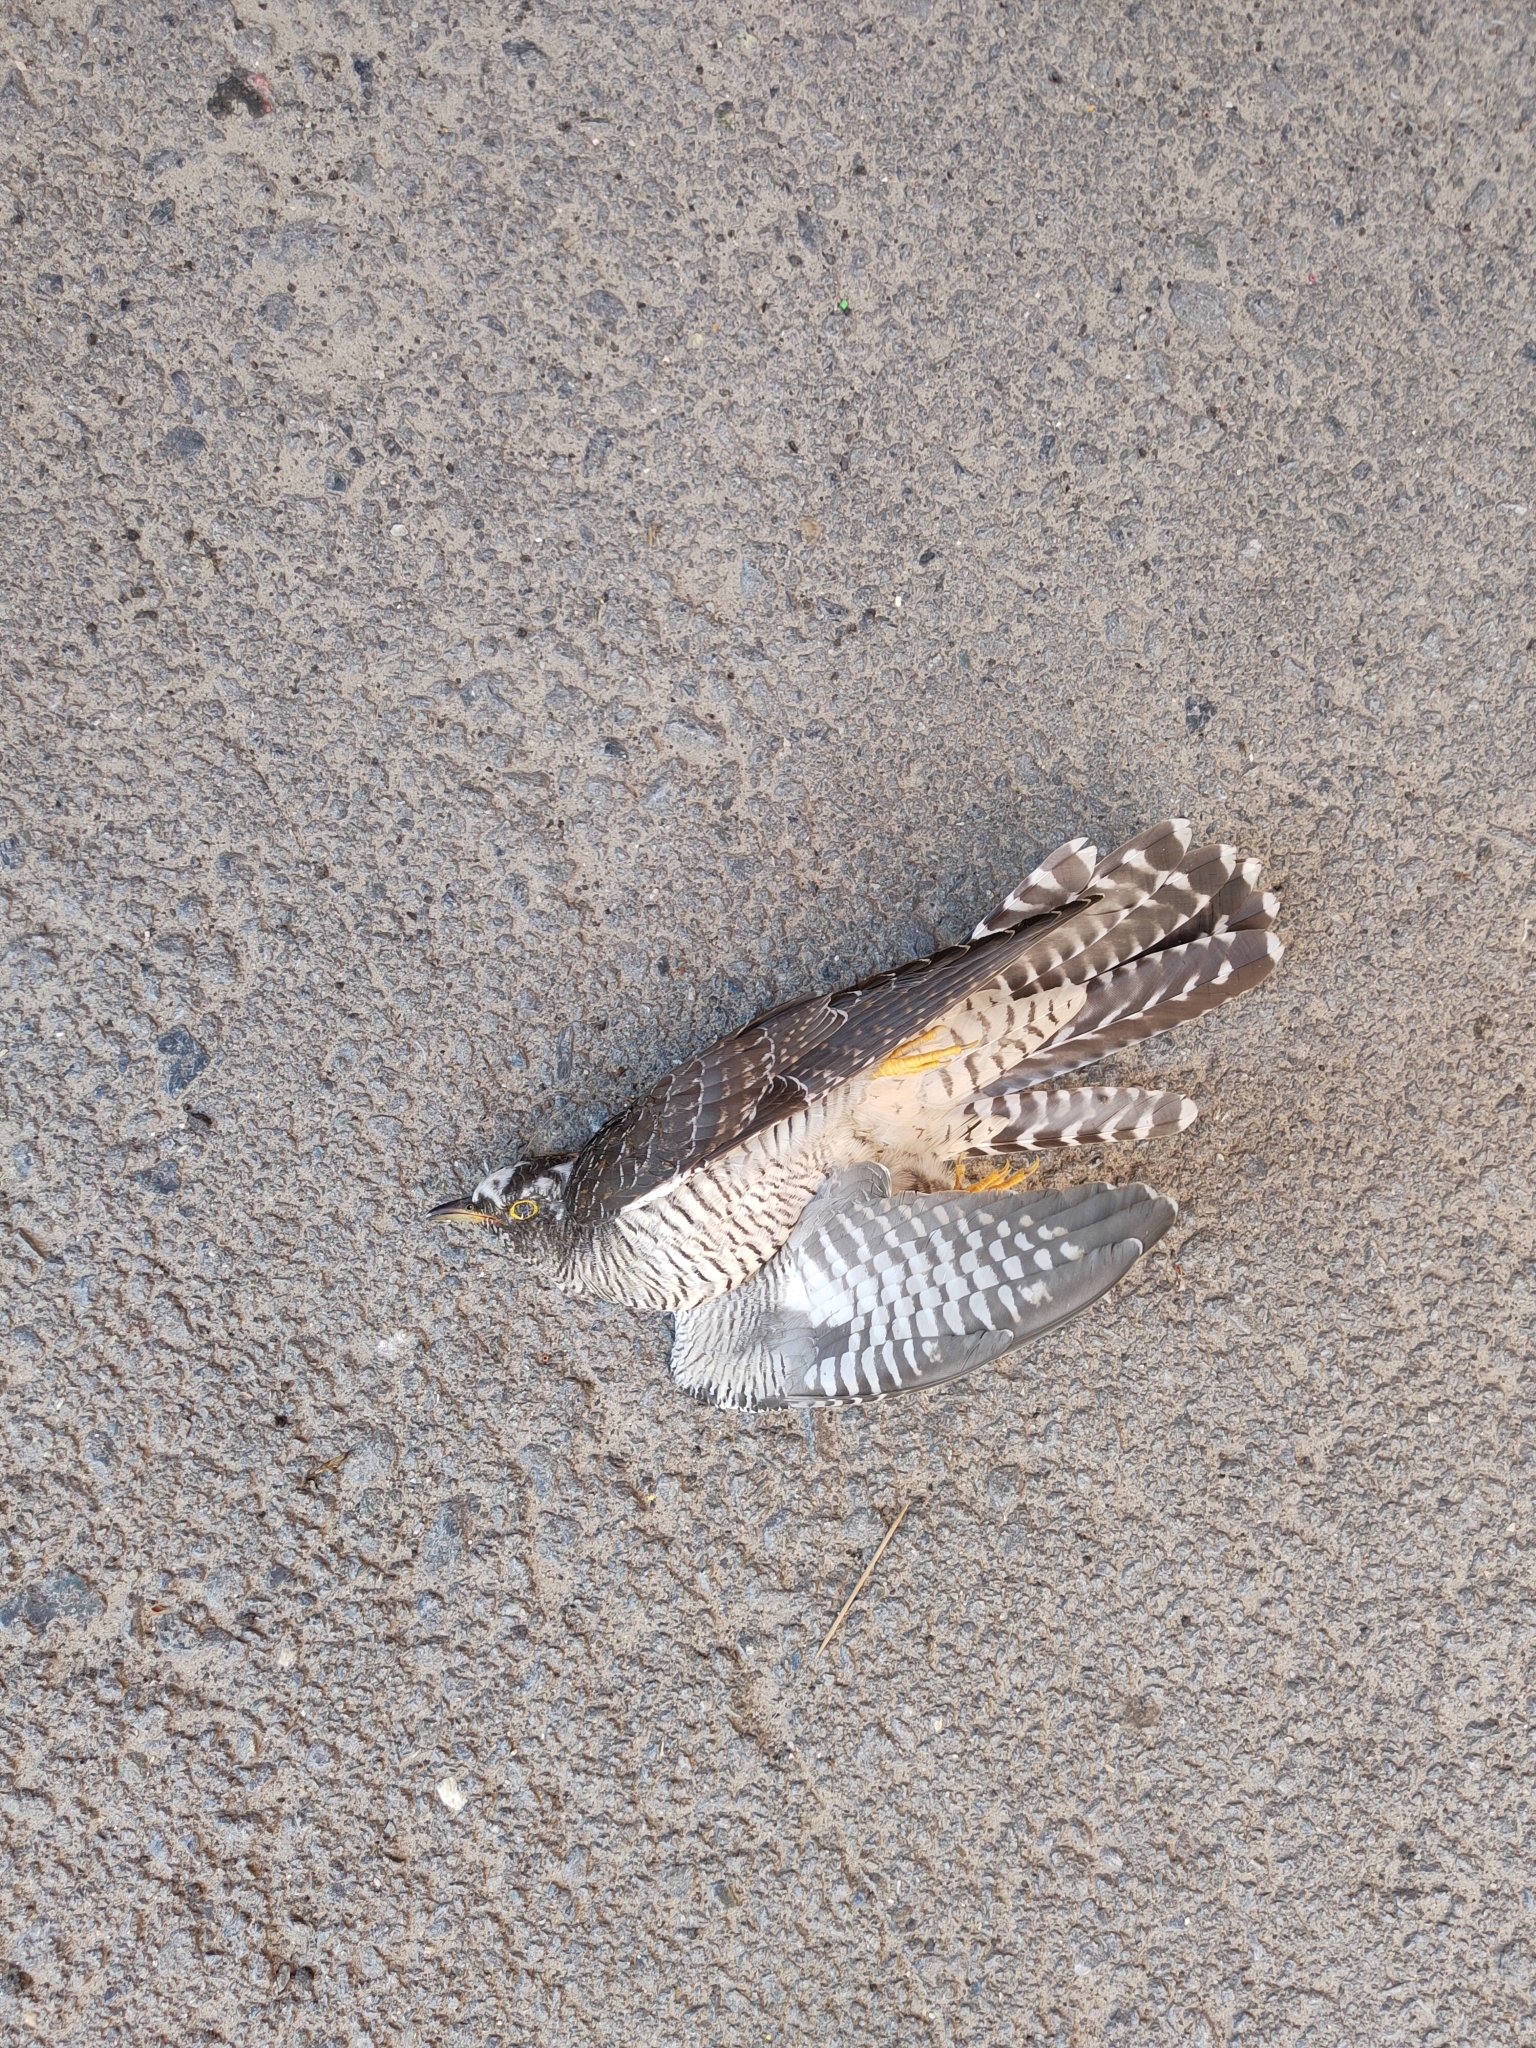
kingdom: Animalia
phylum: Chordata
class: Aves
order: Cuculiformes
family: Cuculidae
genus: Cuculus
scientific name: Cuculus canorus
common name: Common cuckoo
